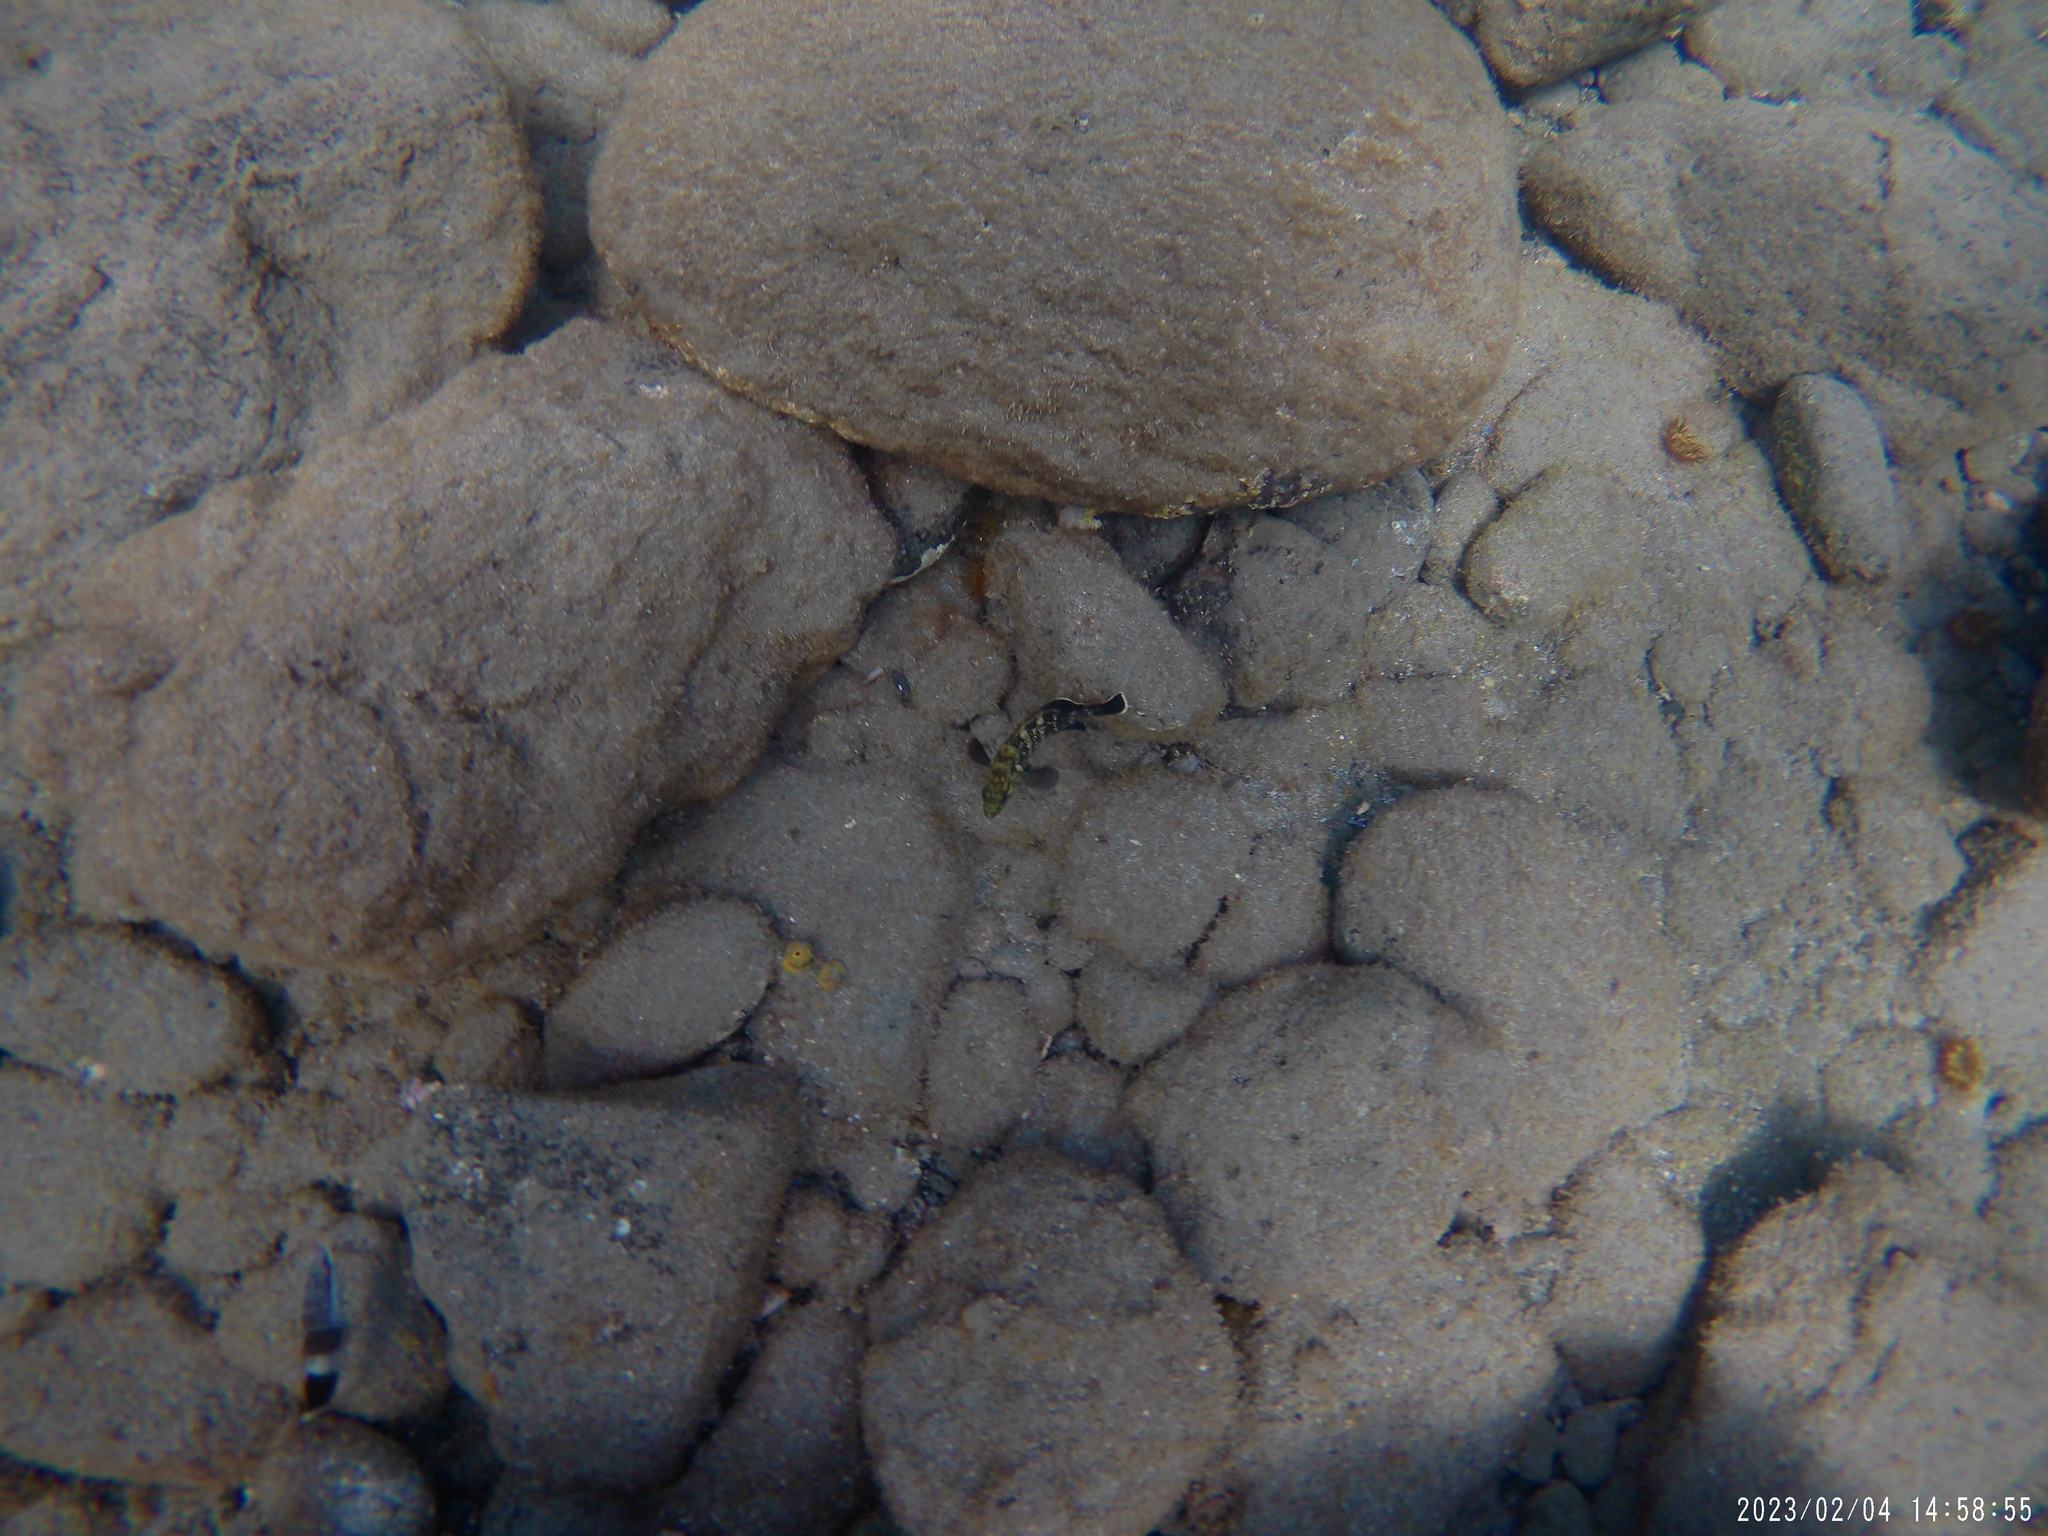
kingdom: Animalia
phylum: Chordata
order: Perciformes
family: Serranidae
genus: Epinephelus
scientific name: Epinephelus marginatus
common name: Dusky grouper
